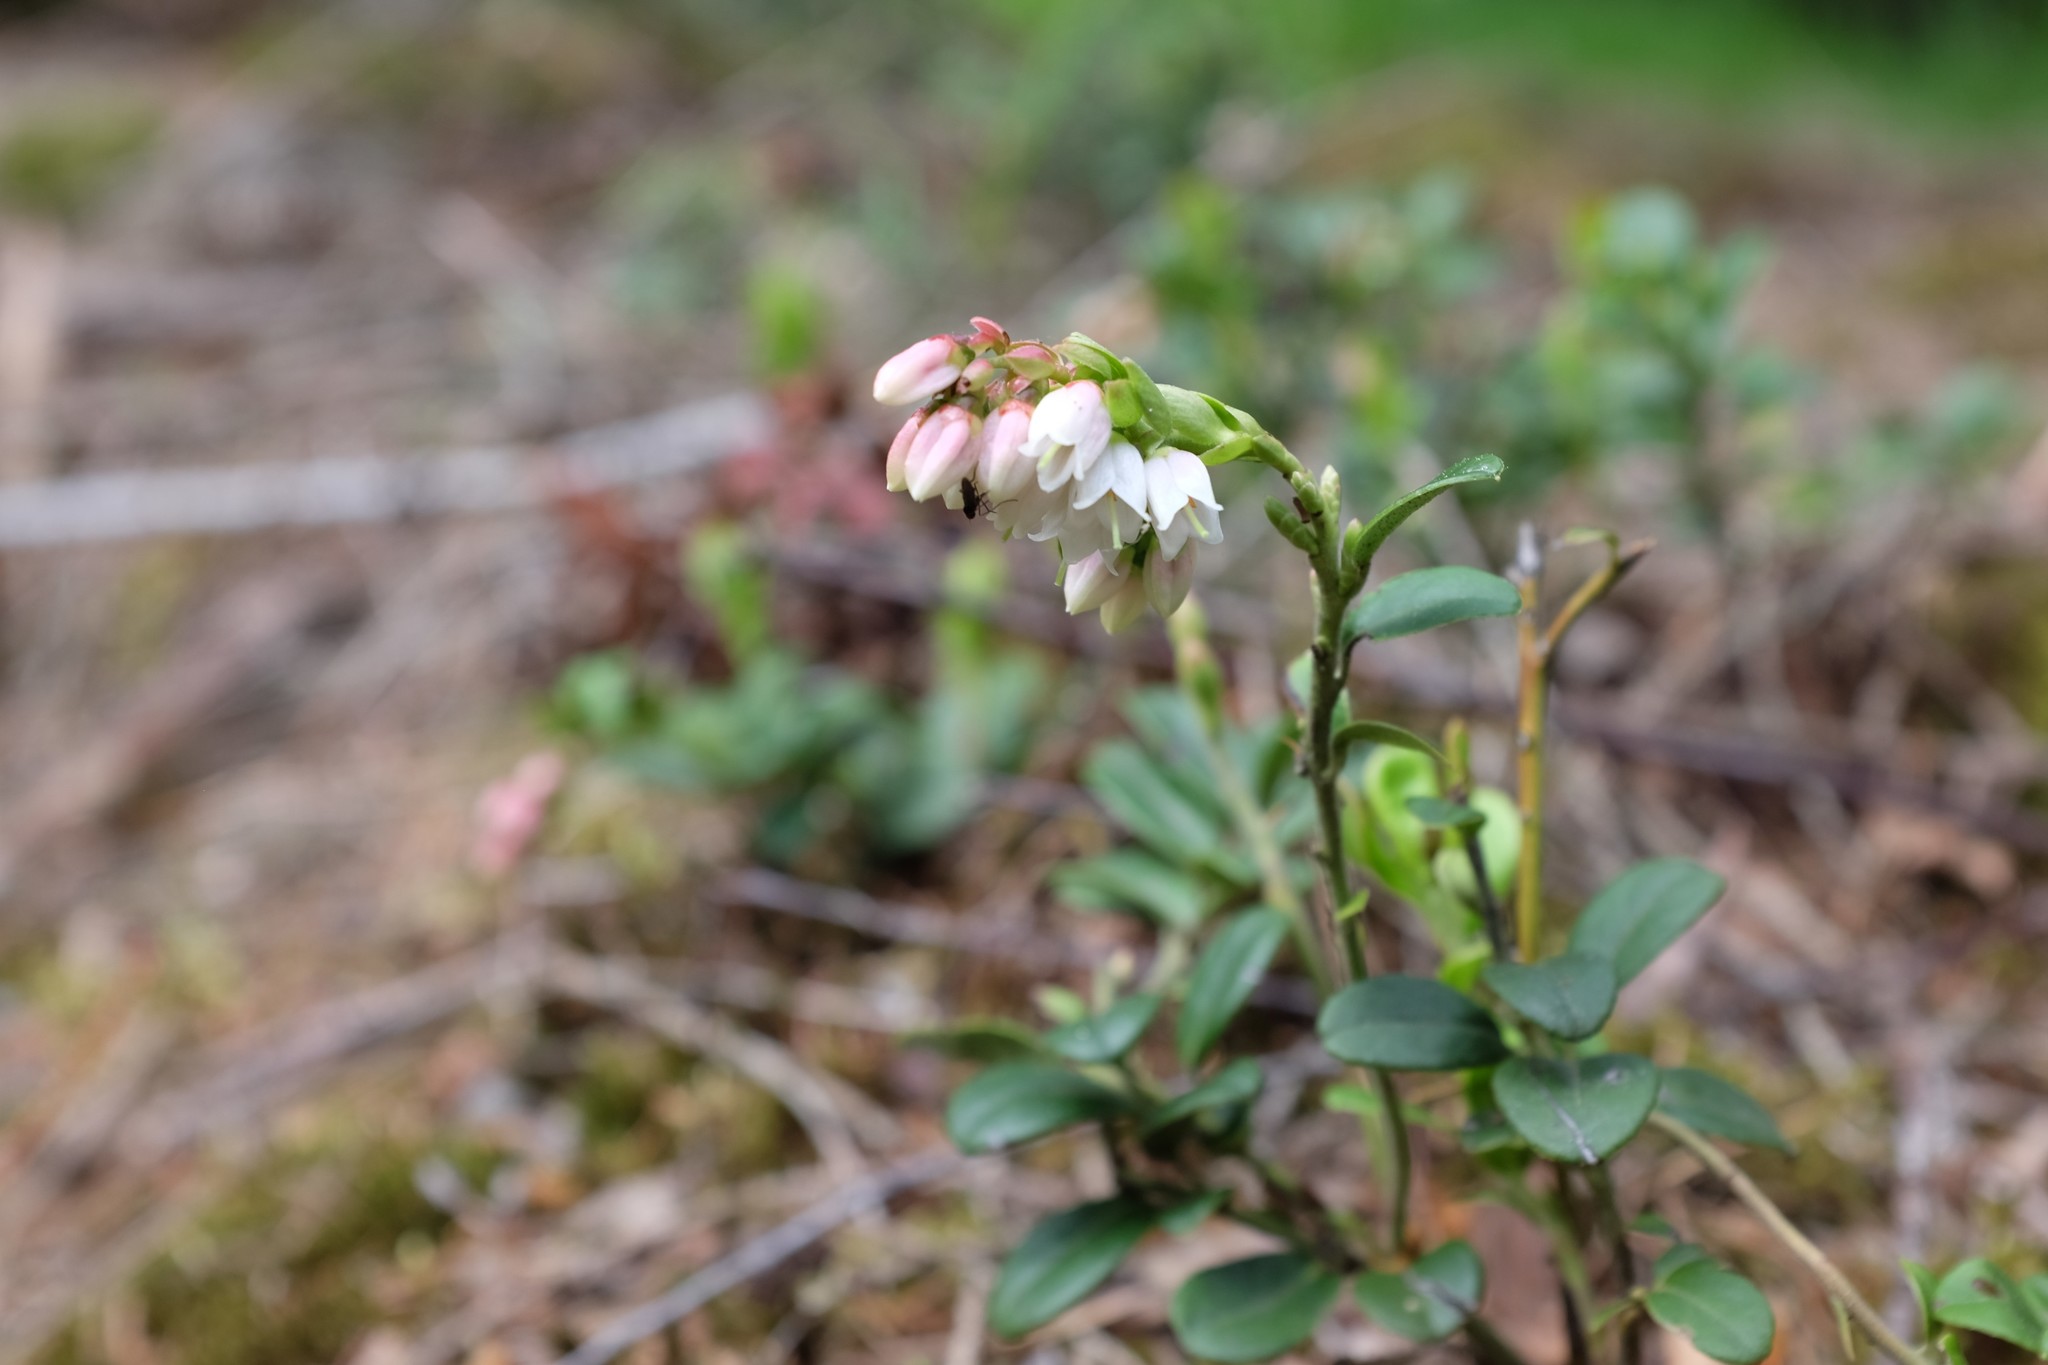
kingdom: Plantae
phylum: Tracheophyta
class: Magnoliopsida
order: Ericales
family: Ericaceae
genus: Vaccinium
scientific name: Vaccinium vitis-idaea
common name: Cowberry
